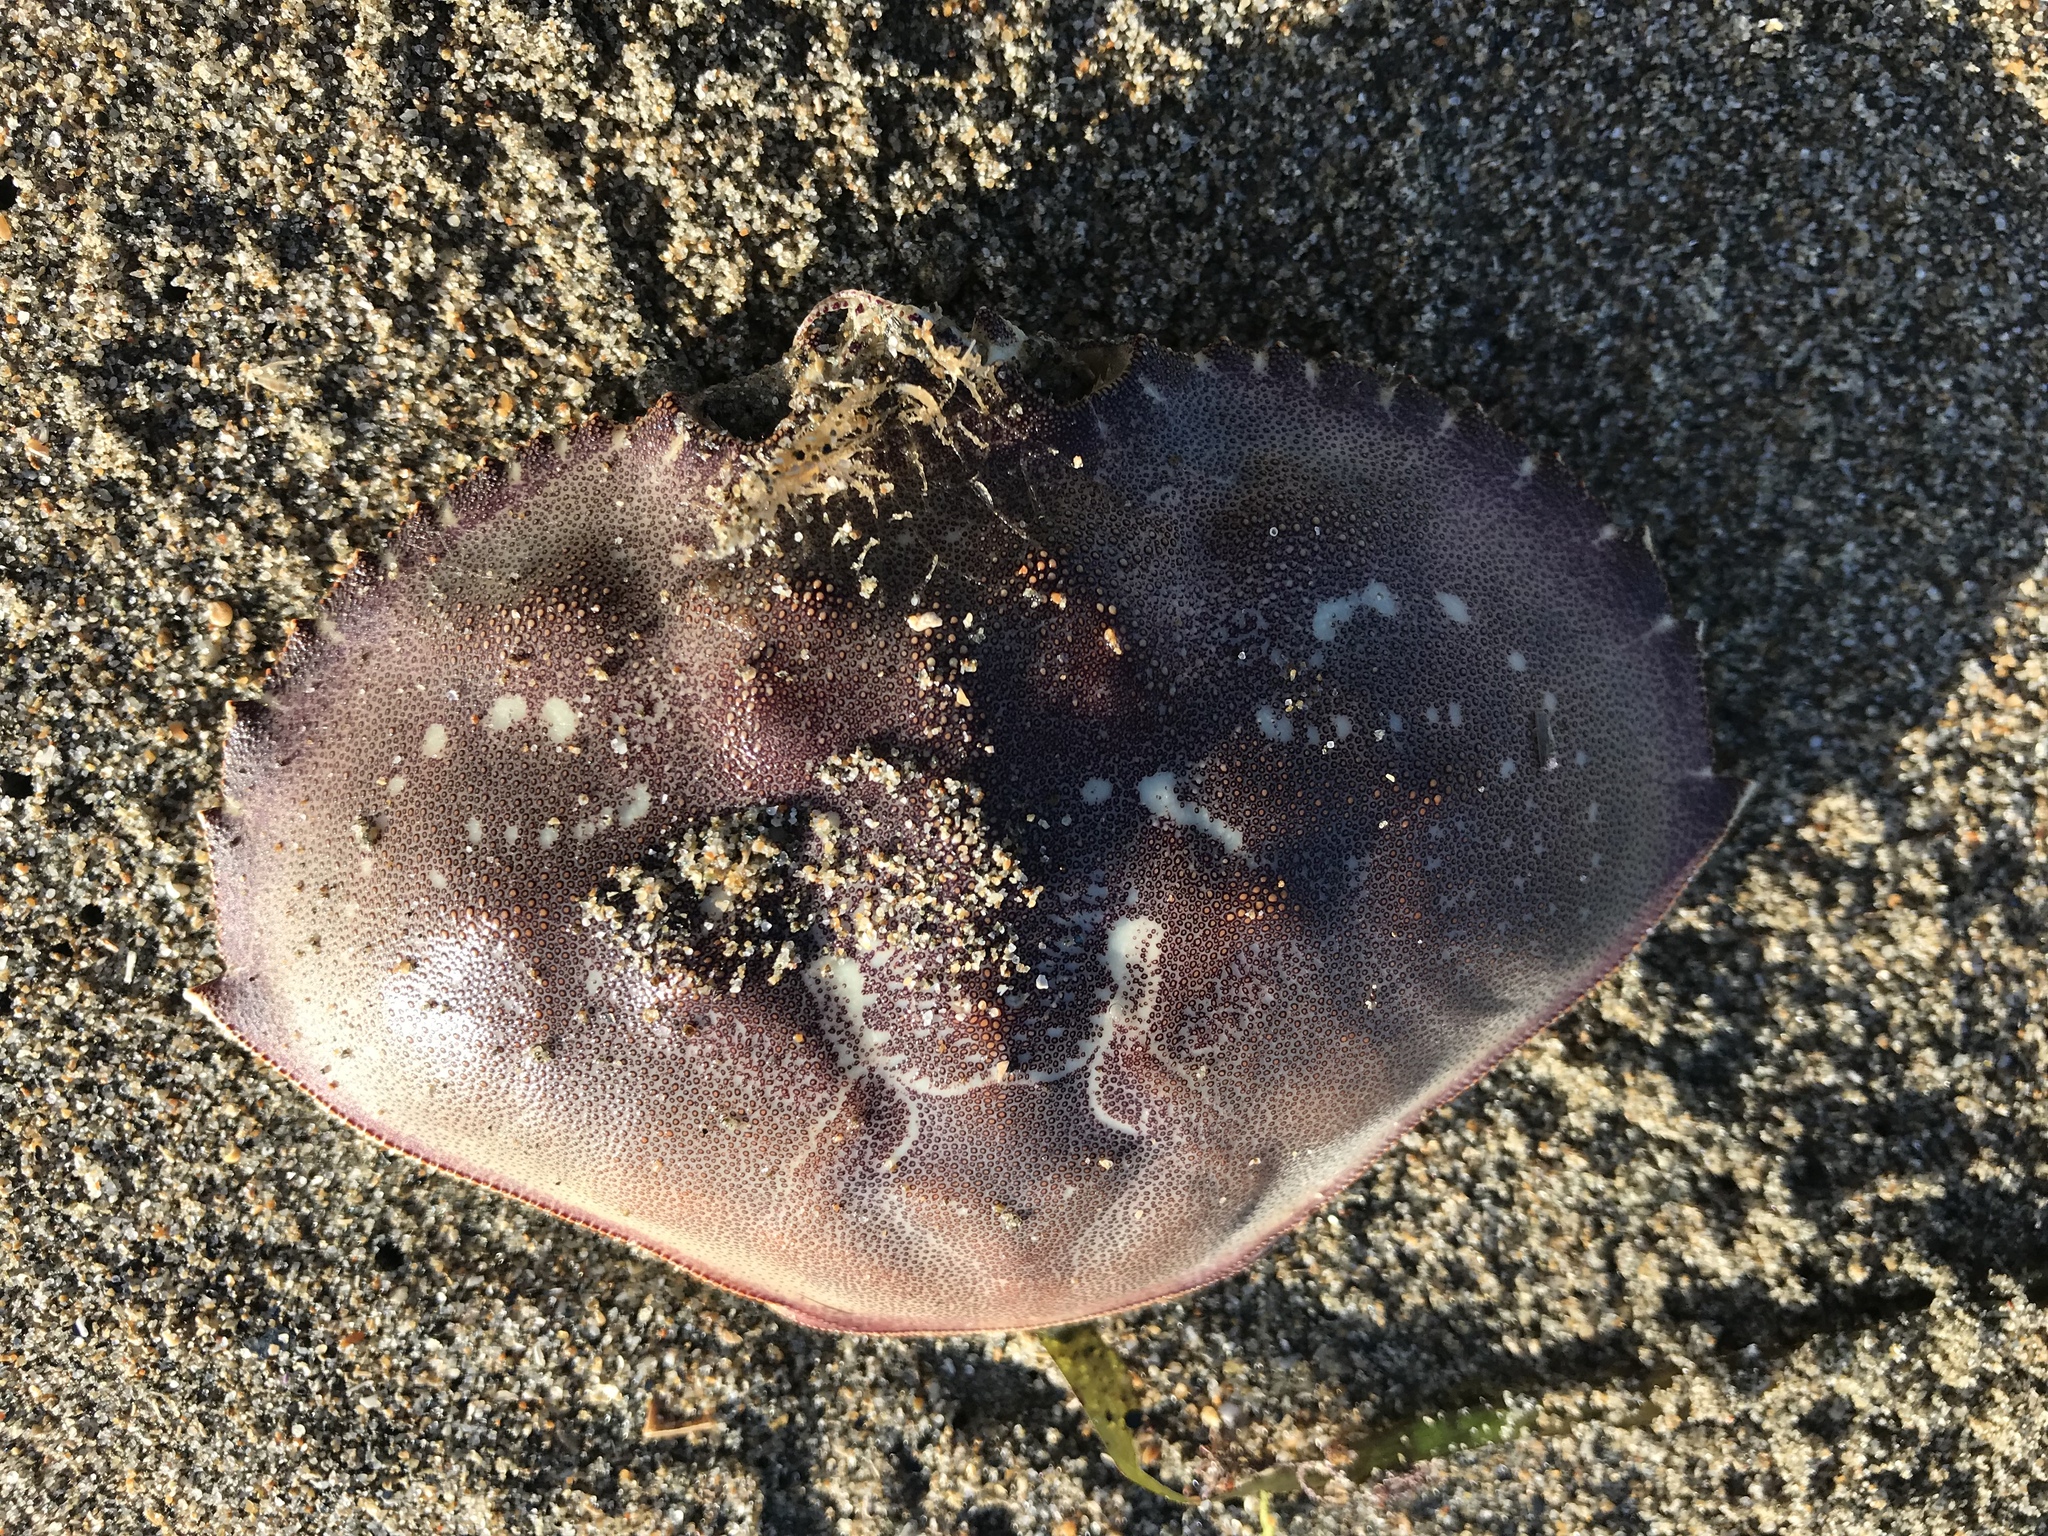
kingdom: Animalia
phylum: Arthropoda
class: Malacostraca
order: Decapoda
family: Cancridae
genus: Metacarcinus
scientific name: Metacarcinus magister
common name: Californian crab
